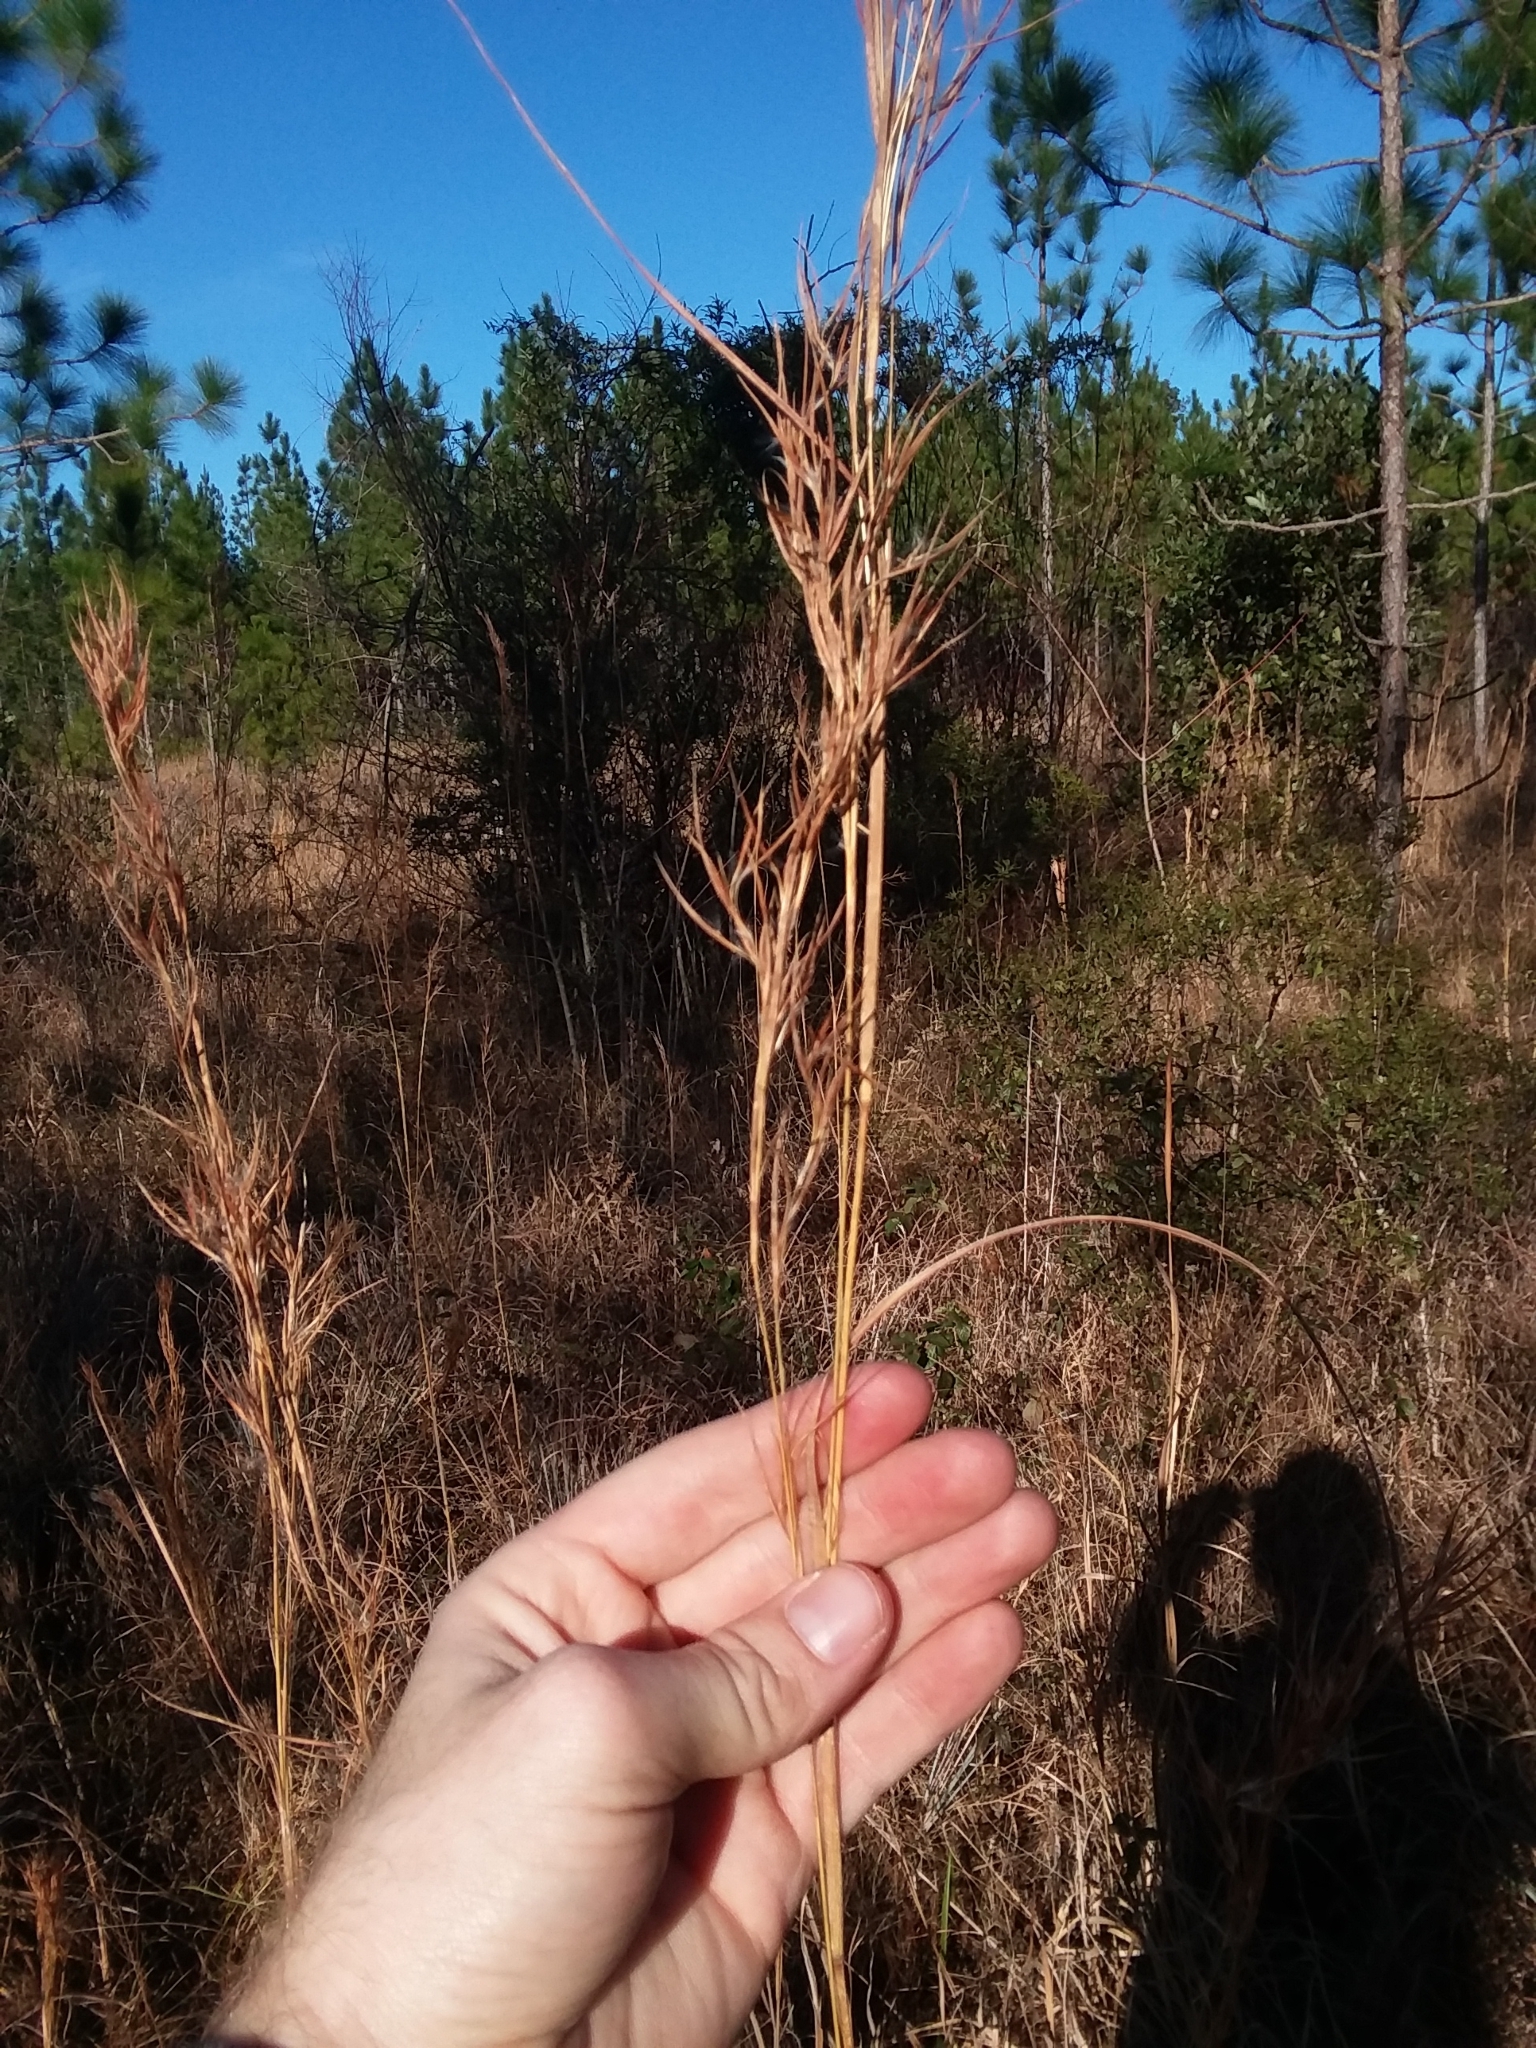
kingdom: Plantae
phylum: Tracheophyta
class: Liliopsida
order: Poales
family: Poaceae
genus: Andropogon
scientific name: Andropogon cretaceus
